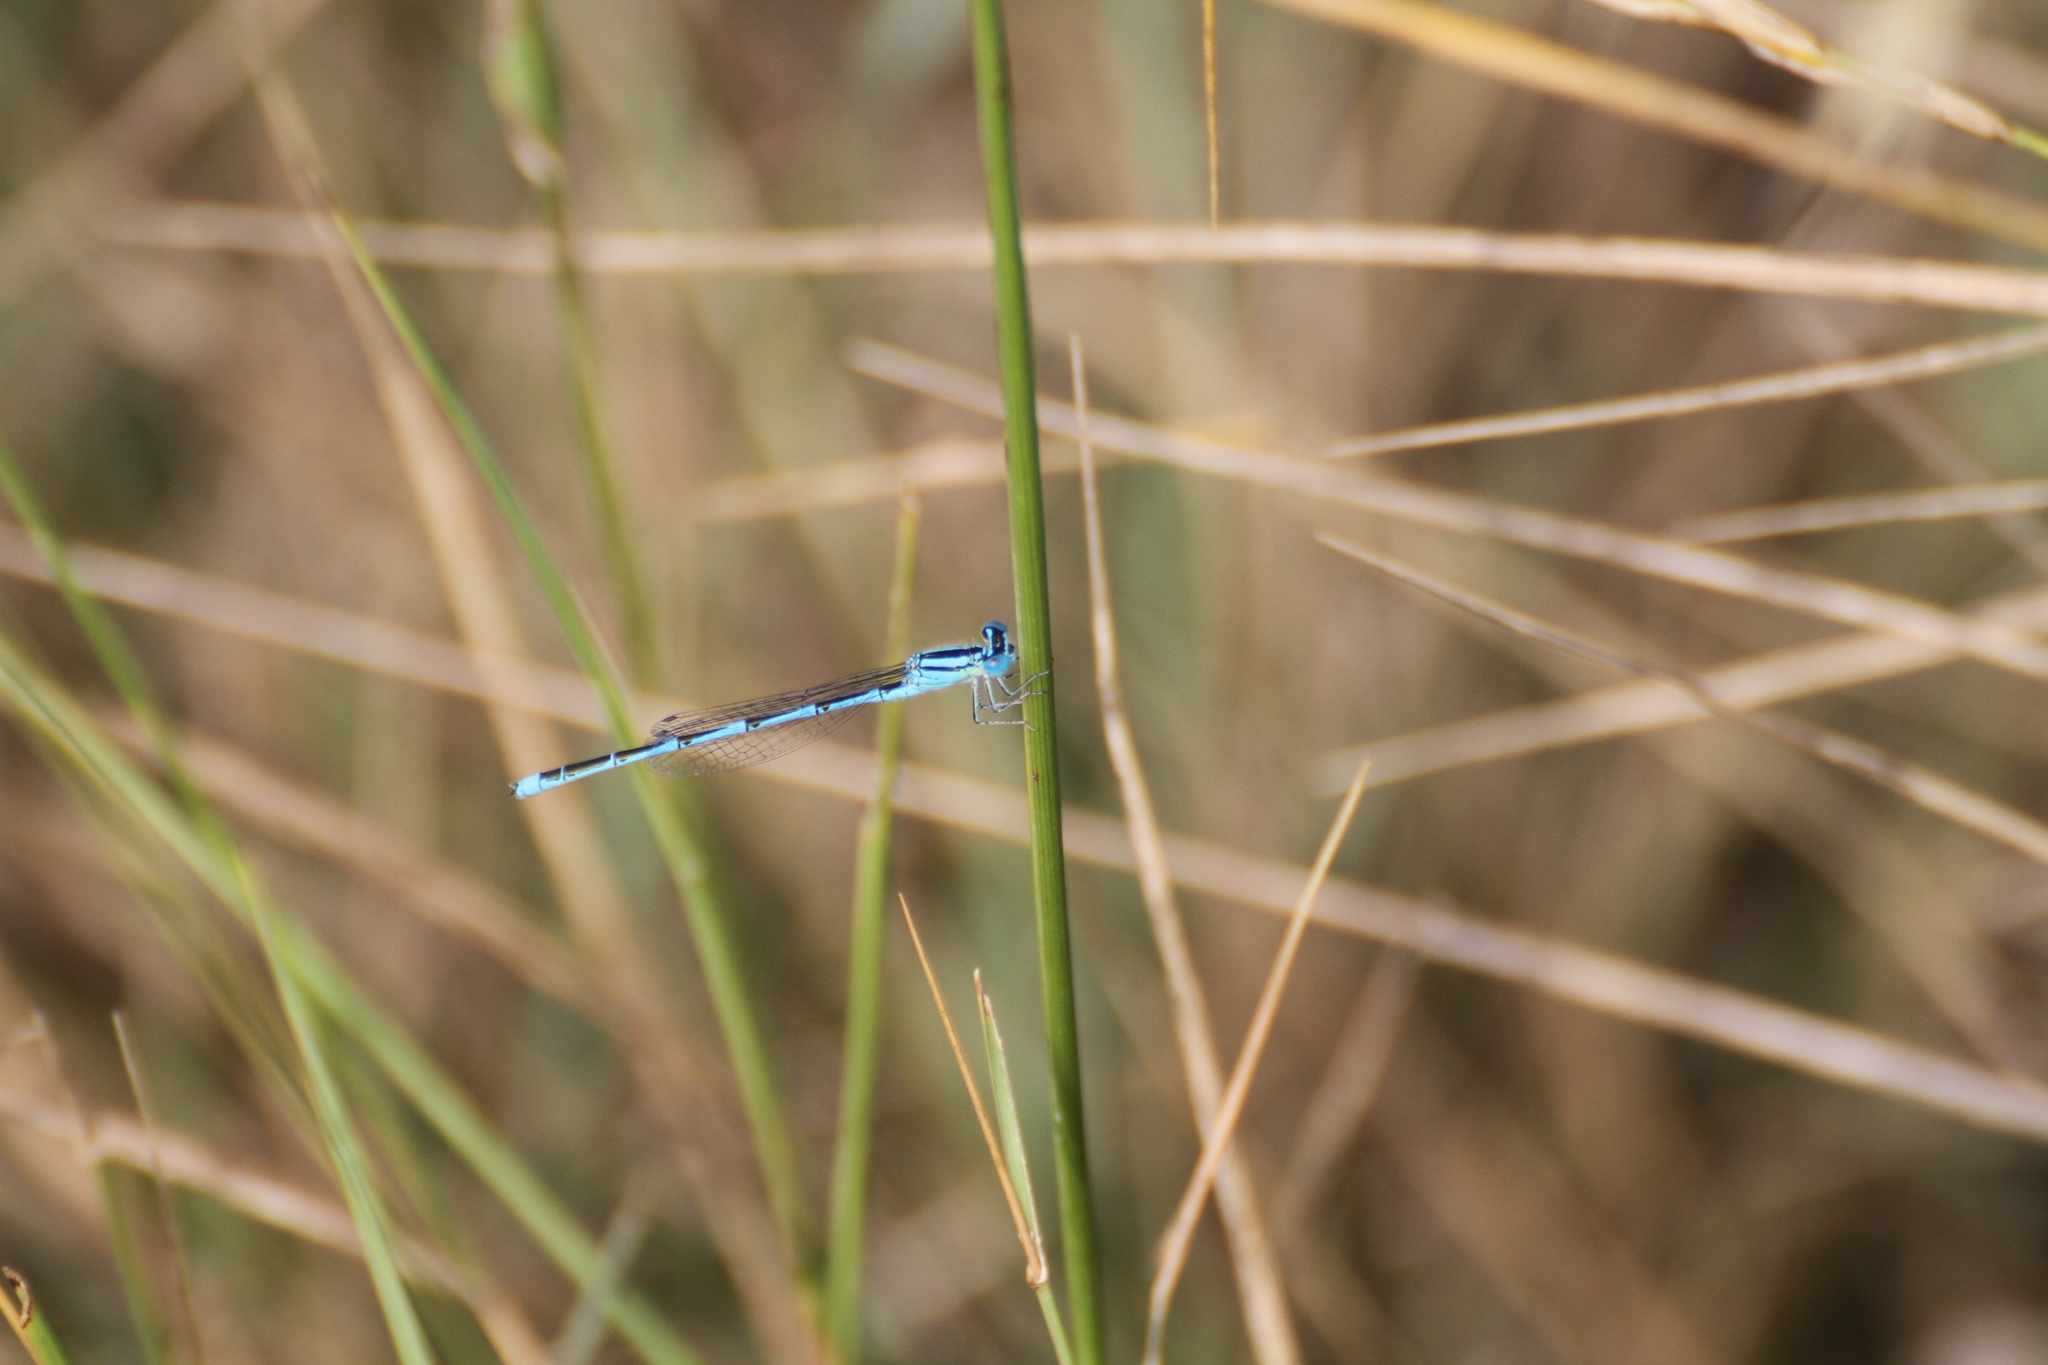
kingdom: Animalia
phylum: Arthropoda
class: Insecta
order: Odonata
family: Coenagrionidae
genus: Erythromma
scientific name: Erythromma lindenii
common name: Blue-eye
